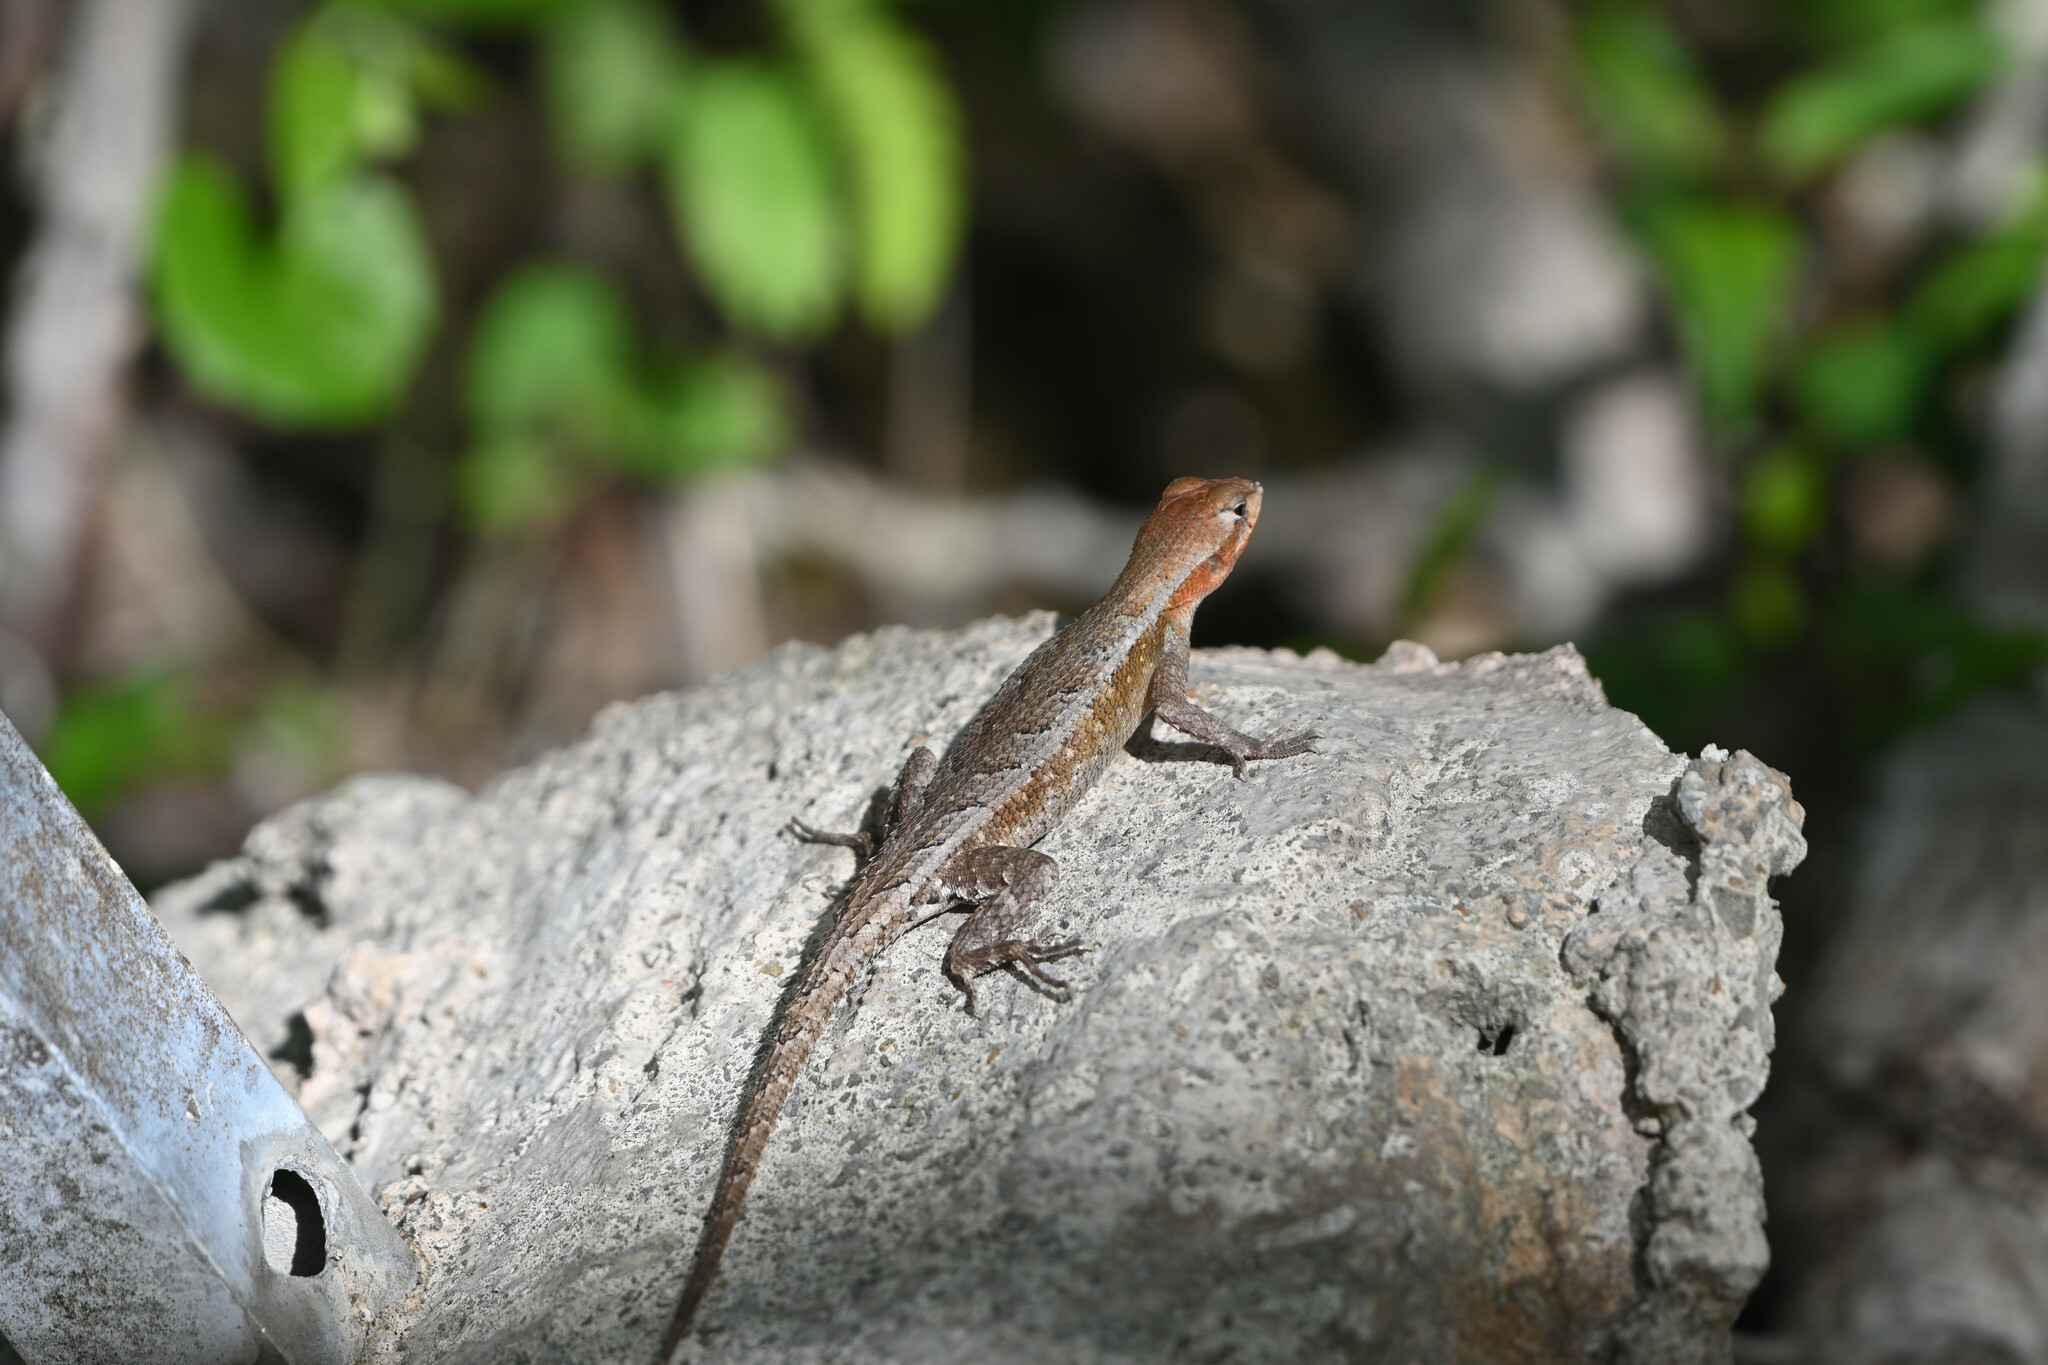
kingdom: Animalia
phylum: Chordata
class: Squamata
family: Phrynosomatidae
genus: Sceloporus
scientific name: Sceloporus chrysostictus
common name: Yellow-spotted spiny lizard
